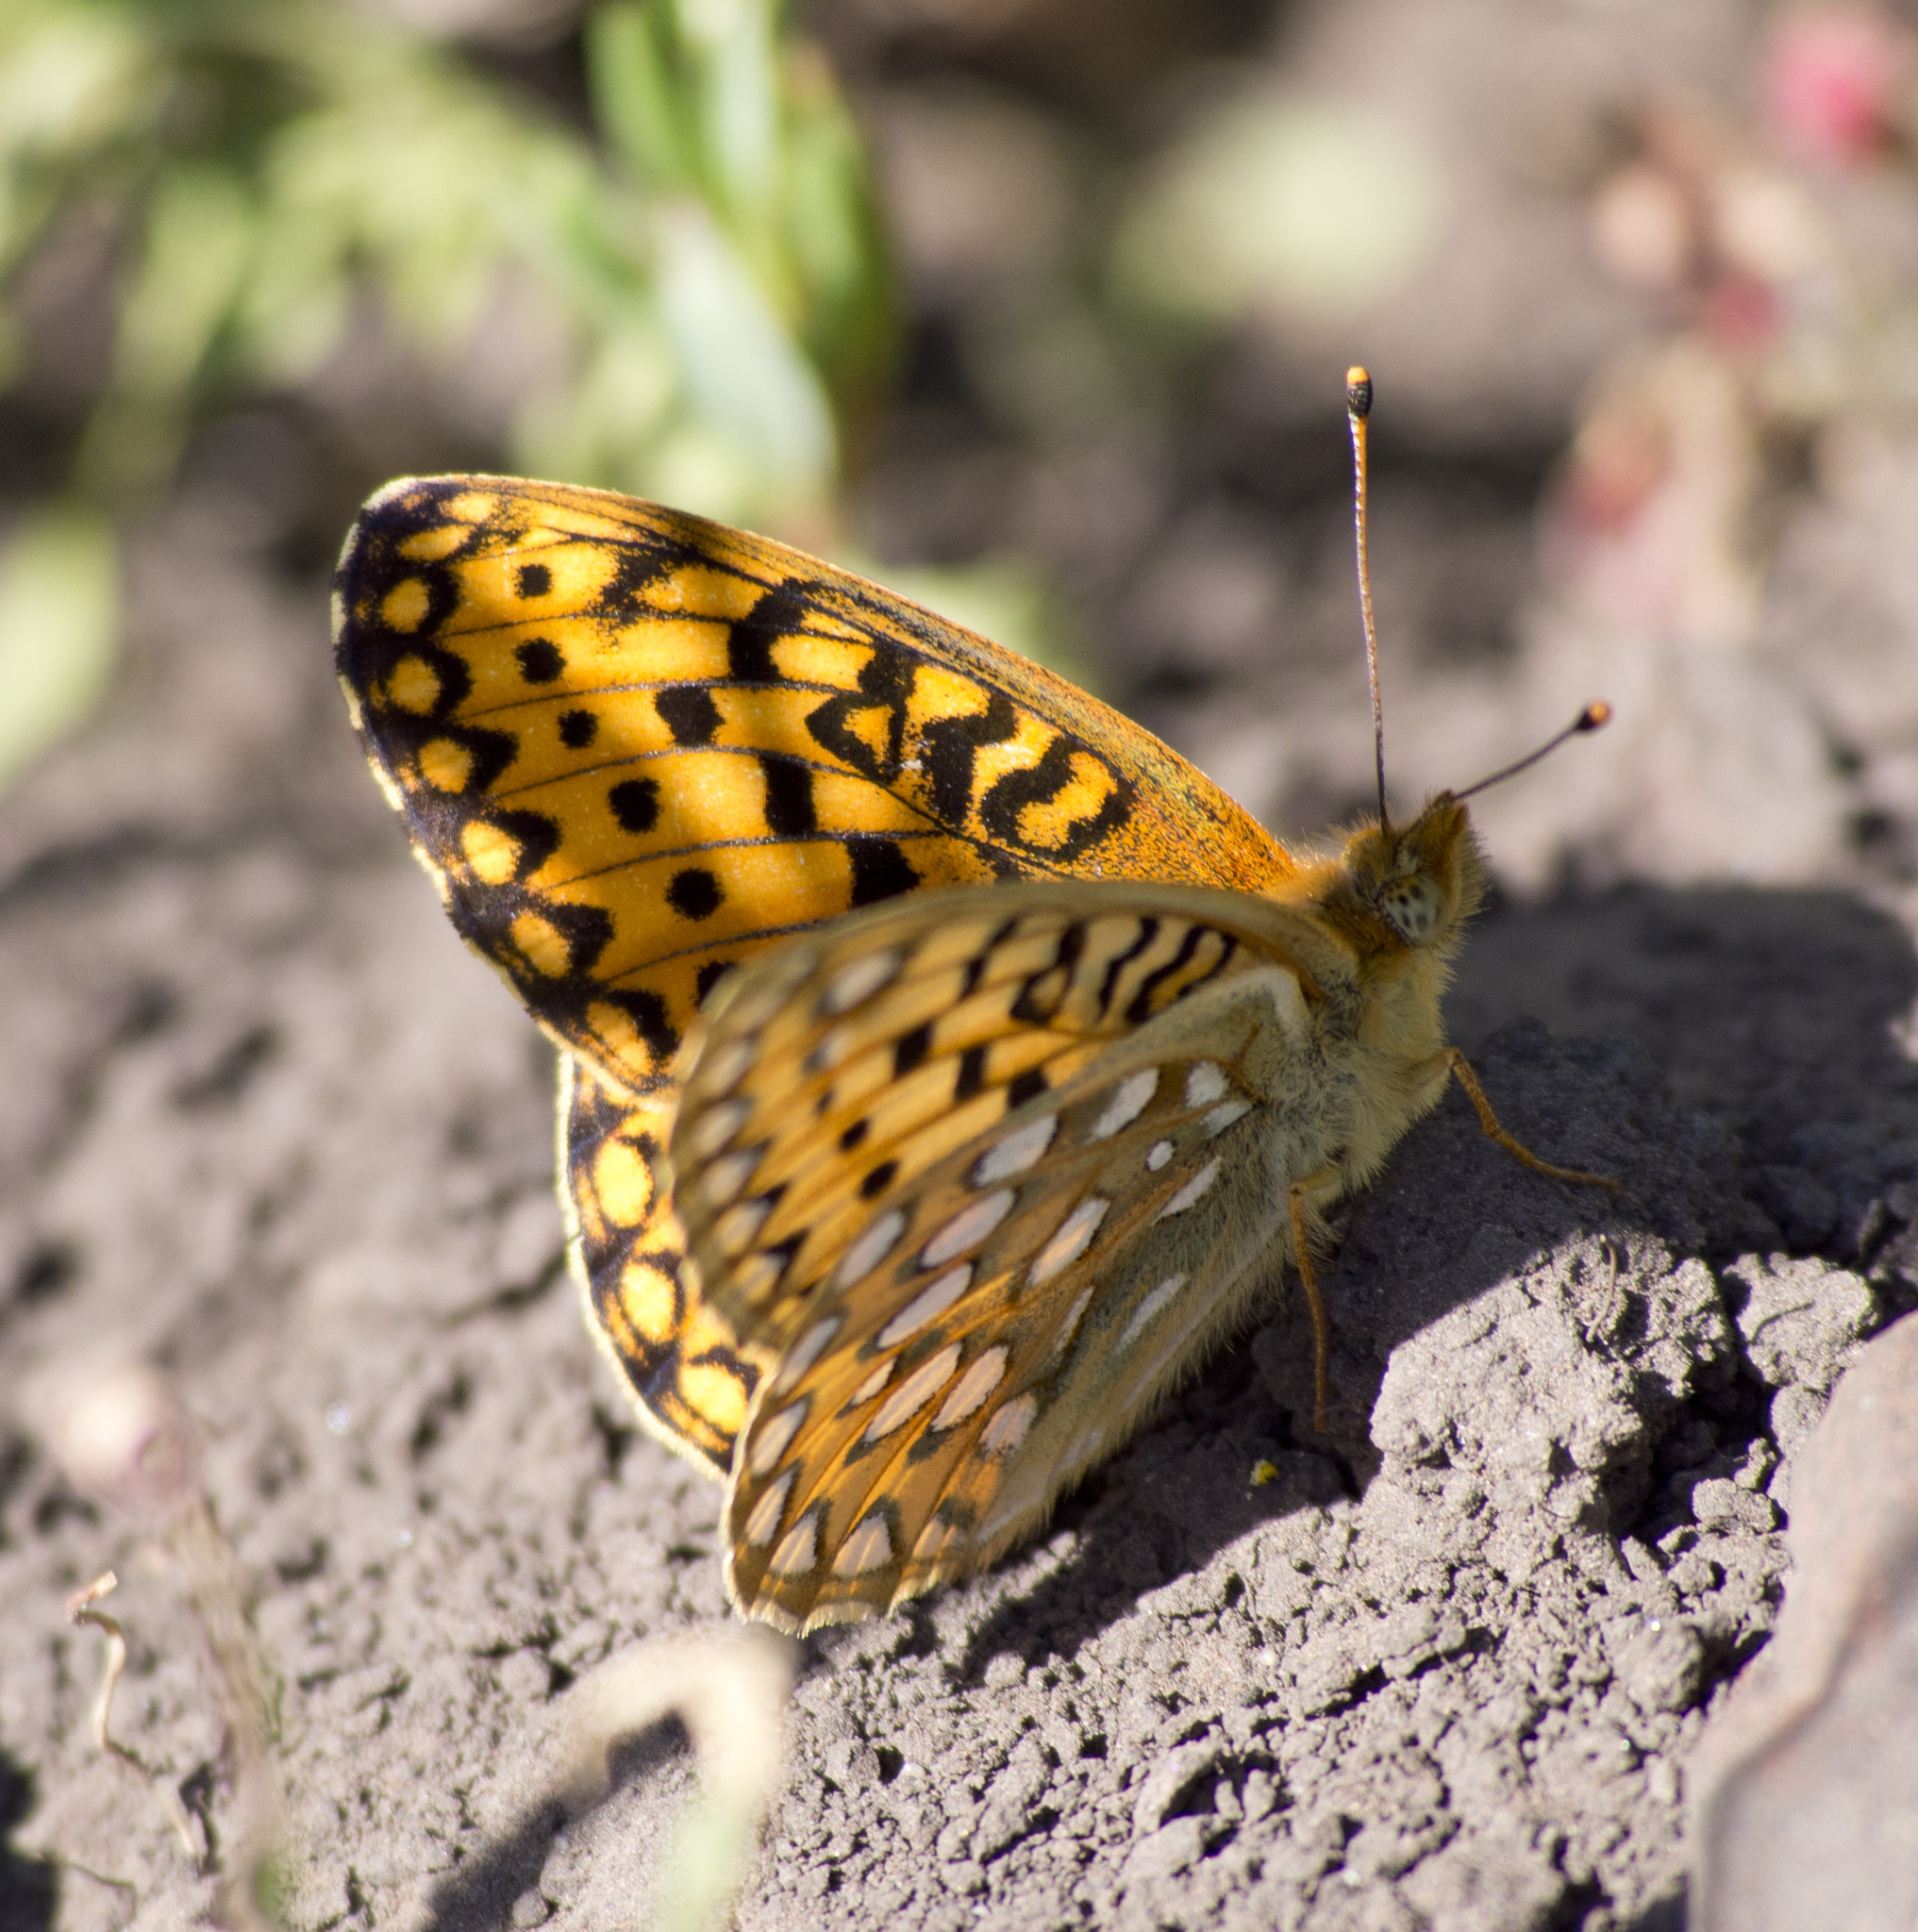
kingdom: Animalia
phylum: Arthropoda
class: Insecta
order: Lepidoptera
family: Nymphalidae
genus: Speyeria
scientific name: Speyeria mormonia
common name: Mormon fritillary
